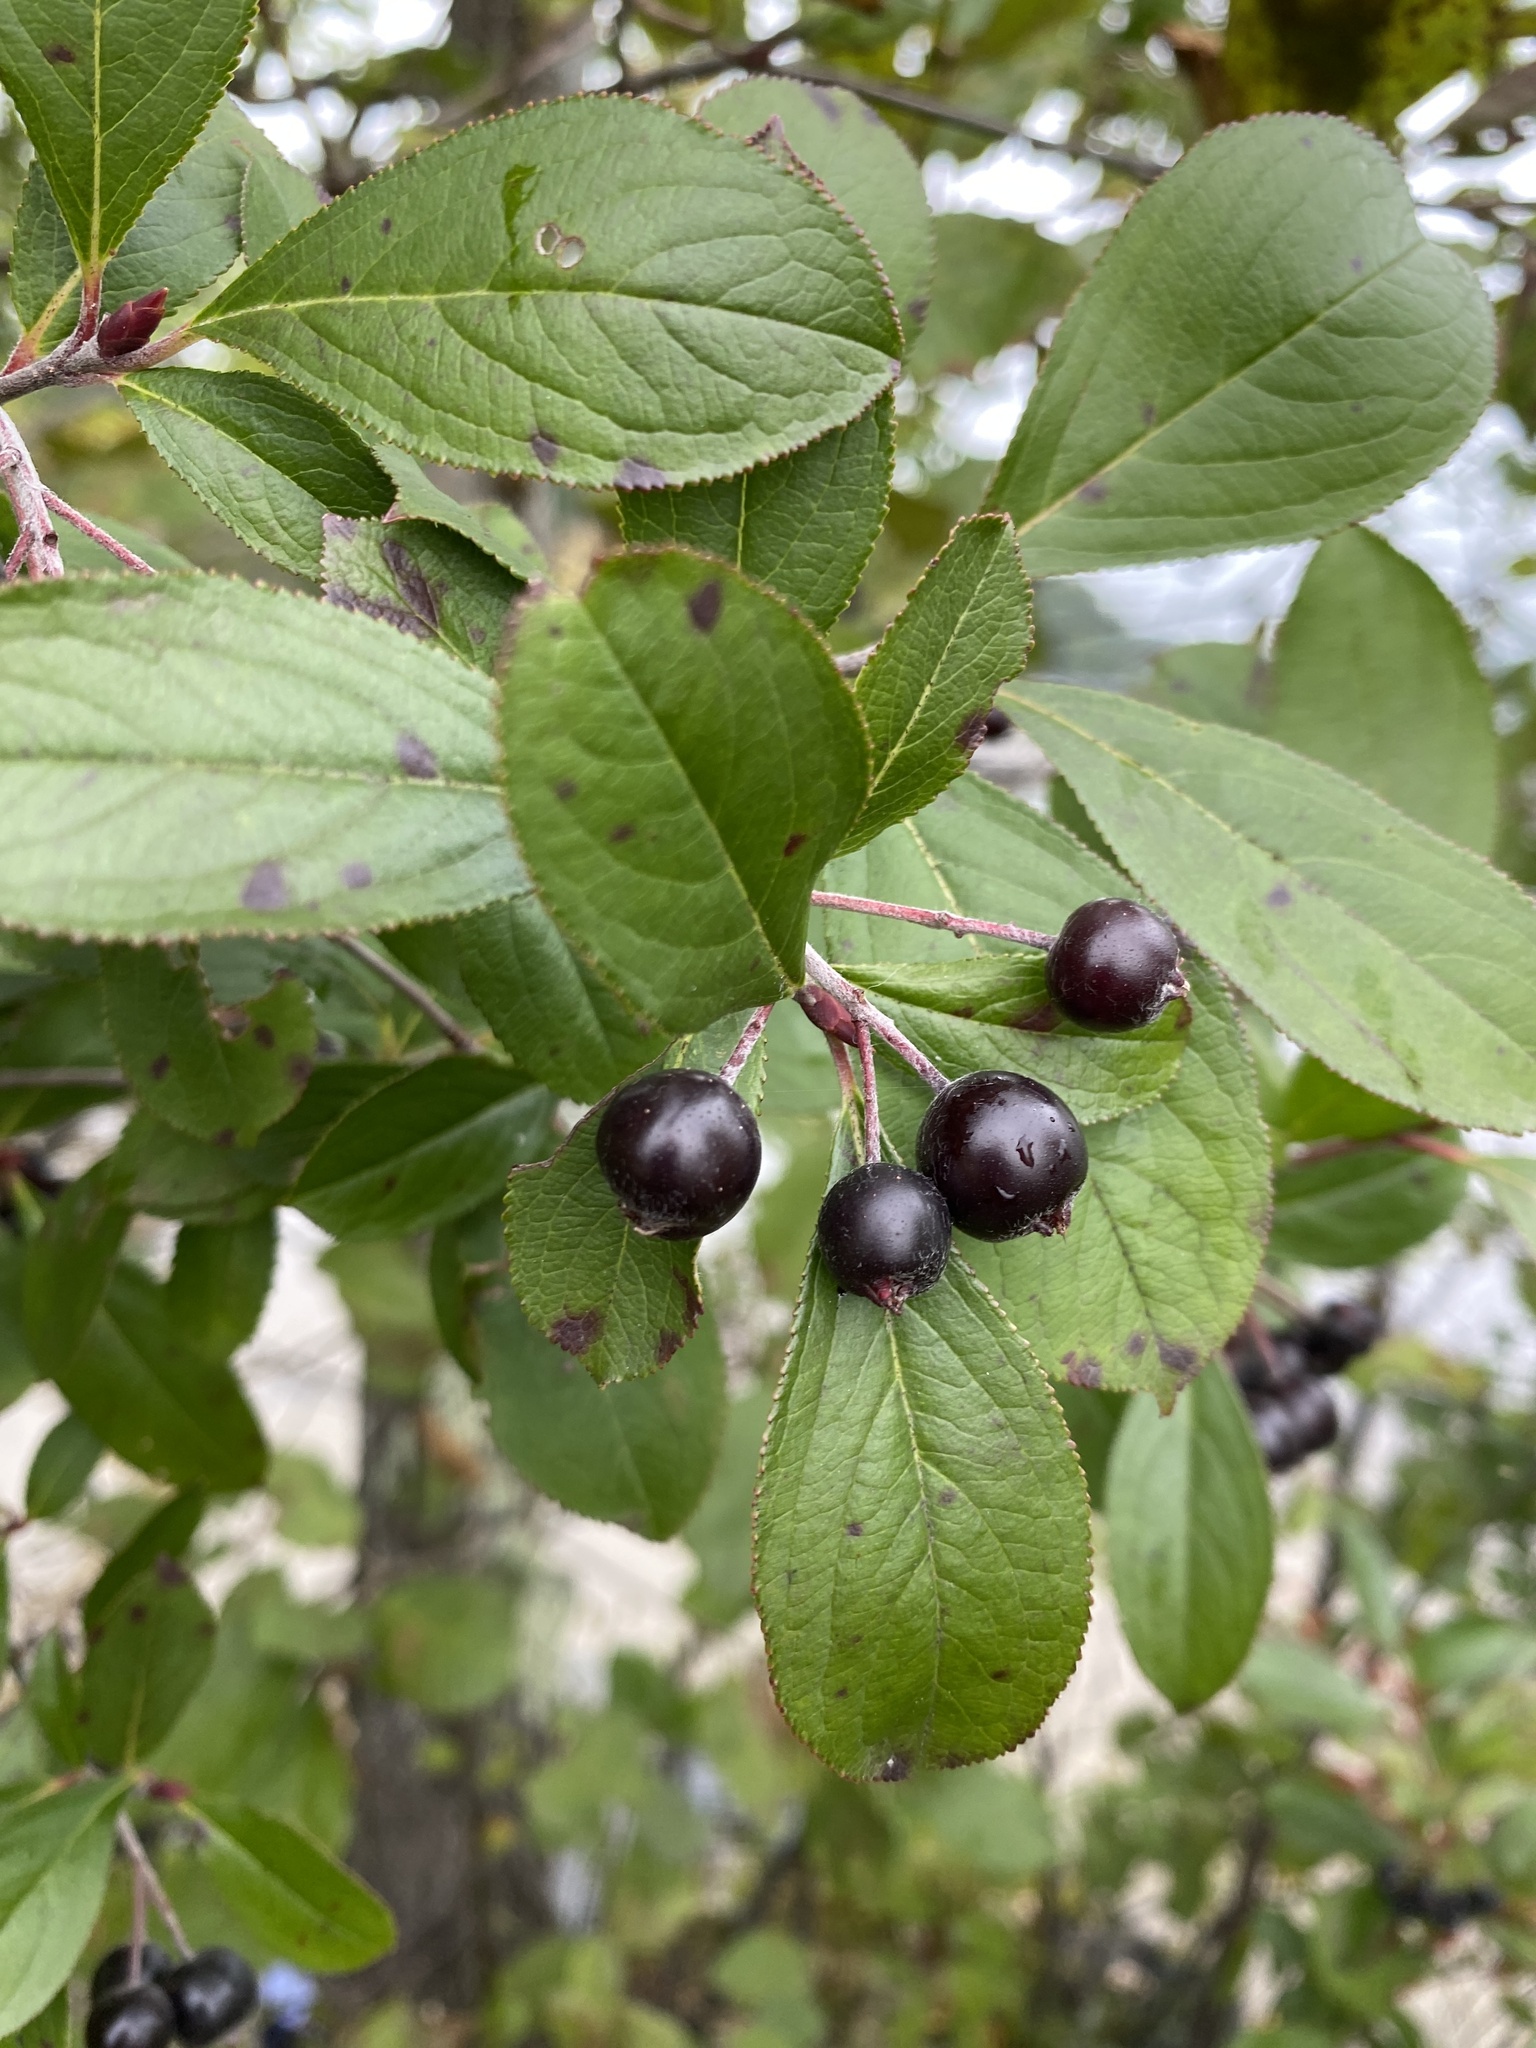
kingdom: Plantae
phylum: Tracheophyta
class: Magnoliopsida
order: Rosales
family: Rosaceae
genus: Aronia
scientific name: Aronia melanocarpa
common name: Black chokeberry
